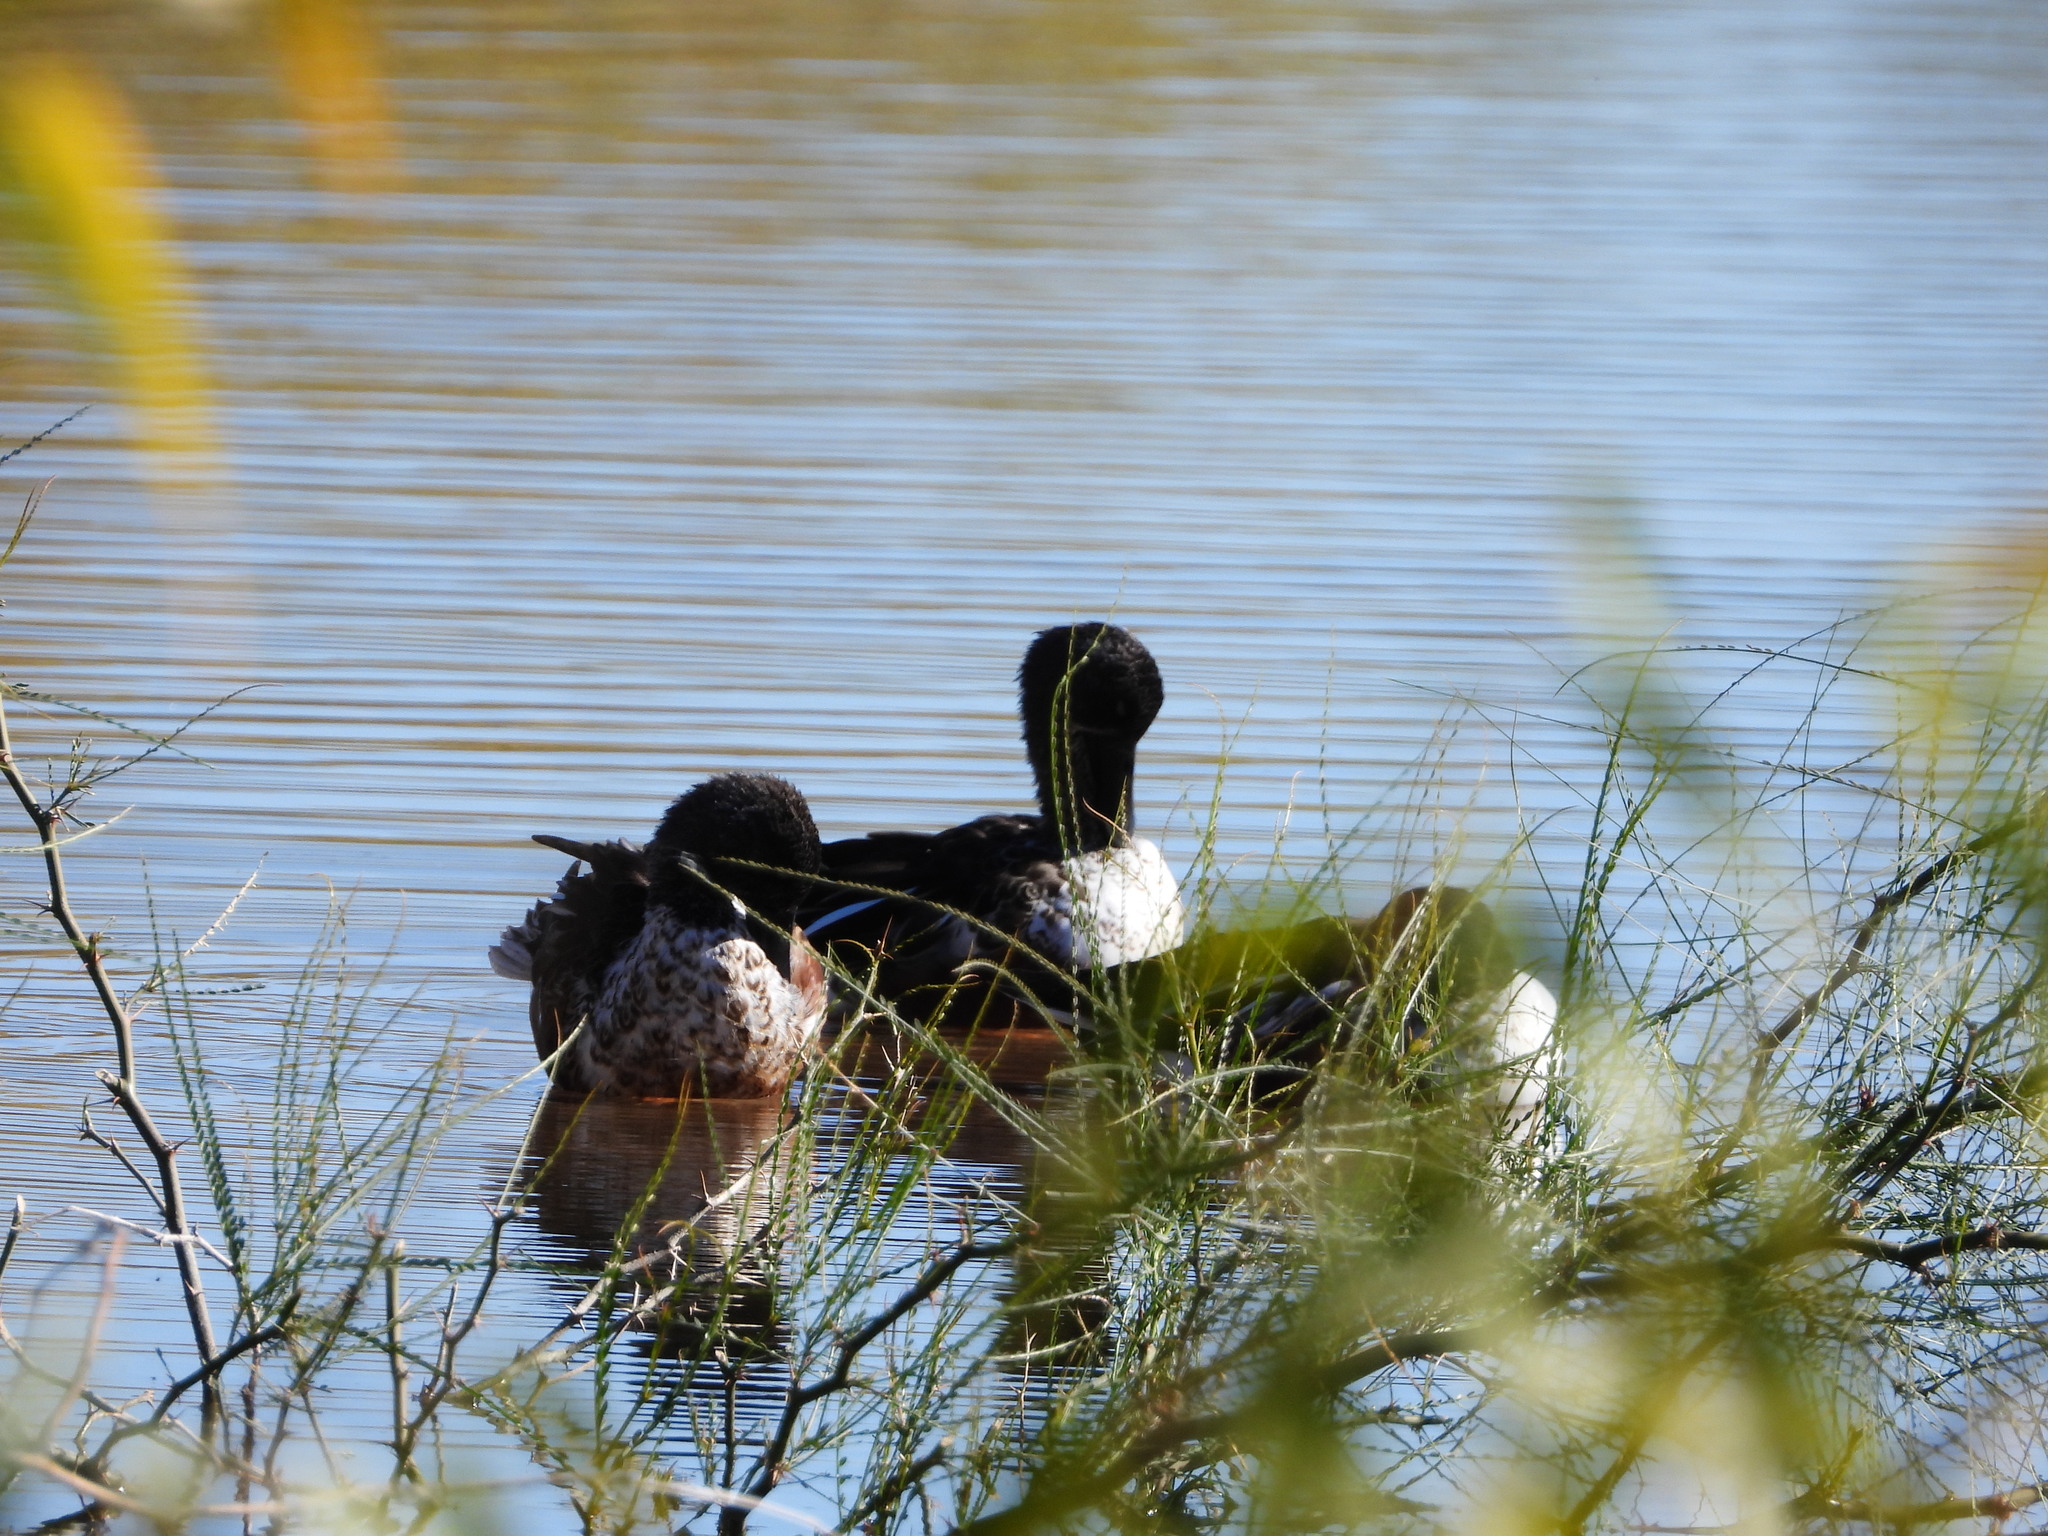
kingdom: Animalia
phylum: Chordata
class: Aves
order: Anseriformes
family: Anatidae
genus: Spatula
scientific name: Spatula clypeata
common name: Northern shoveler
